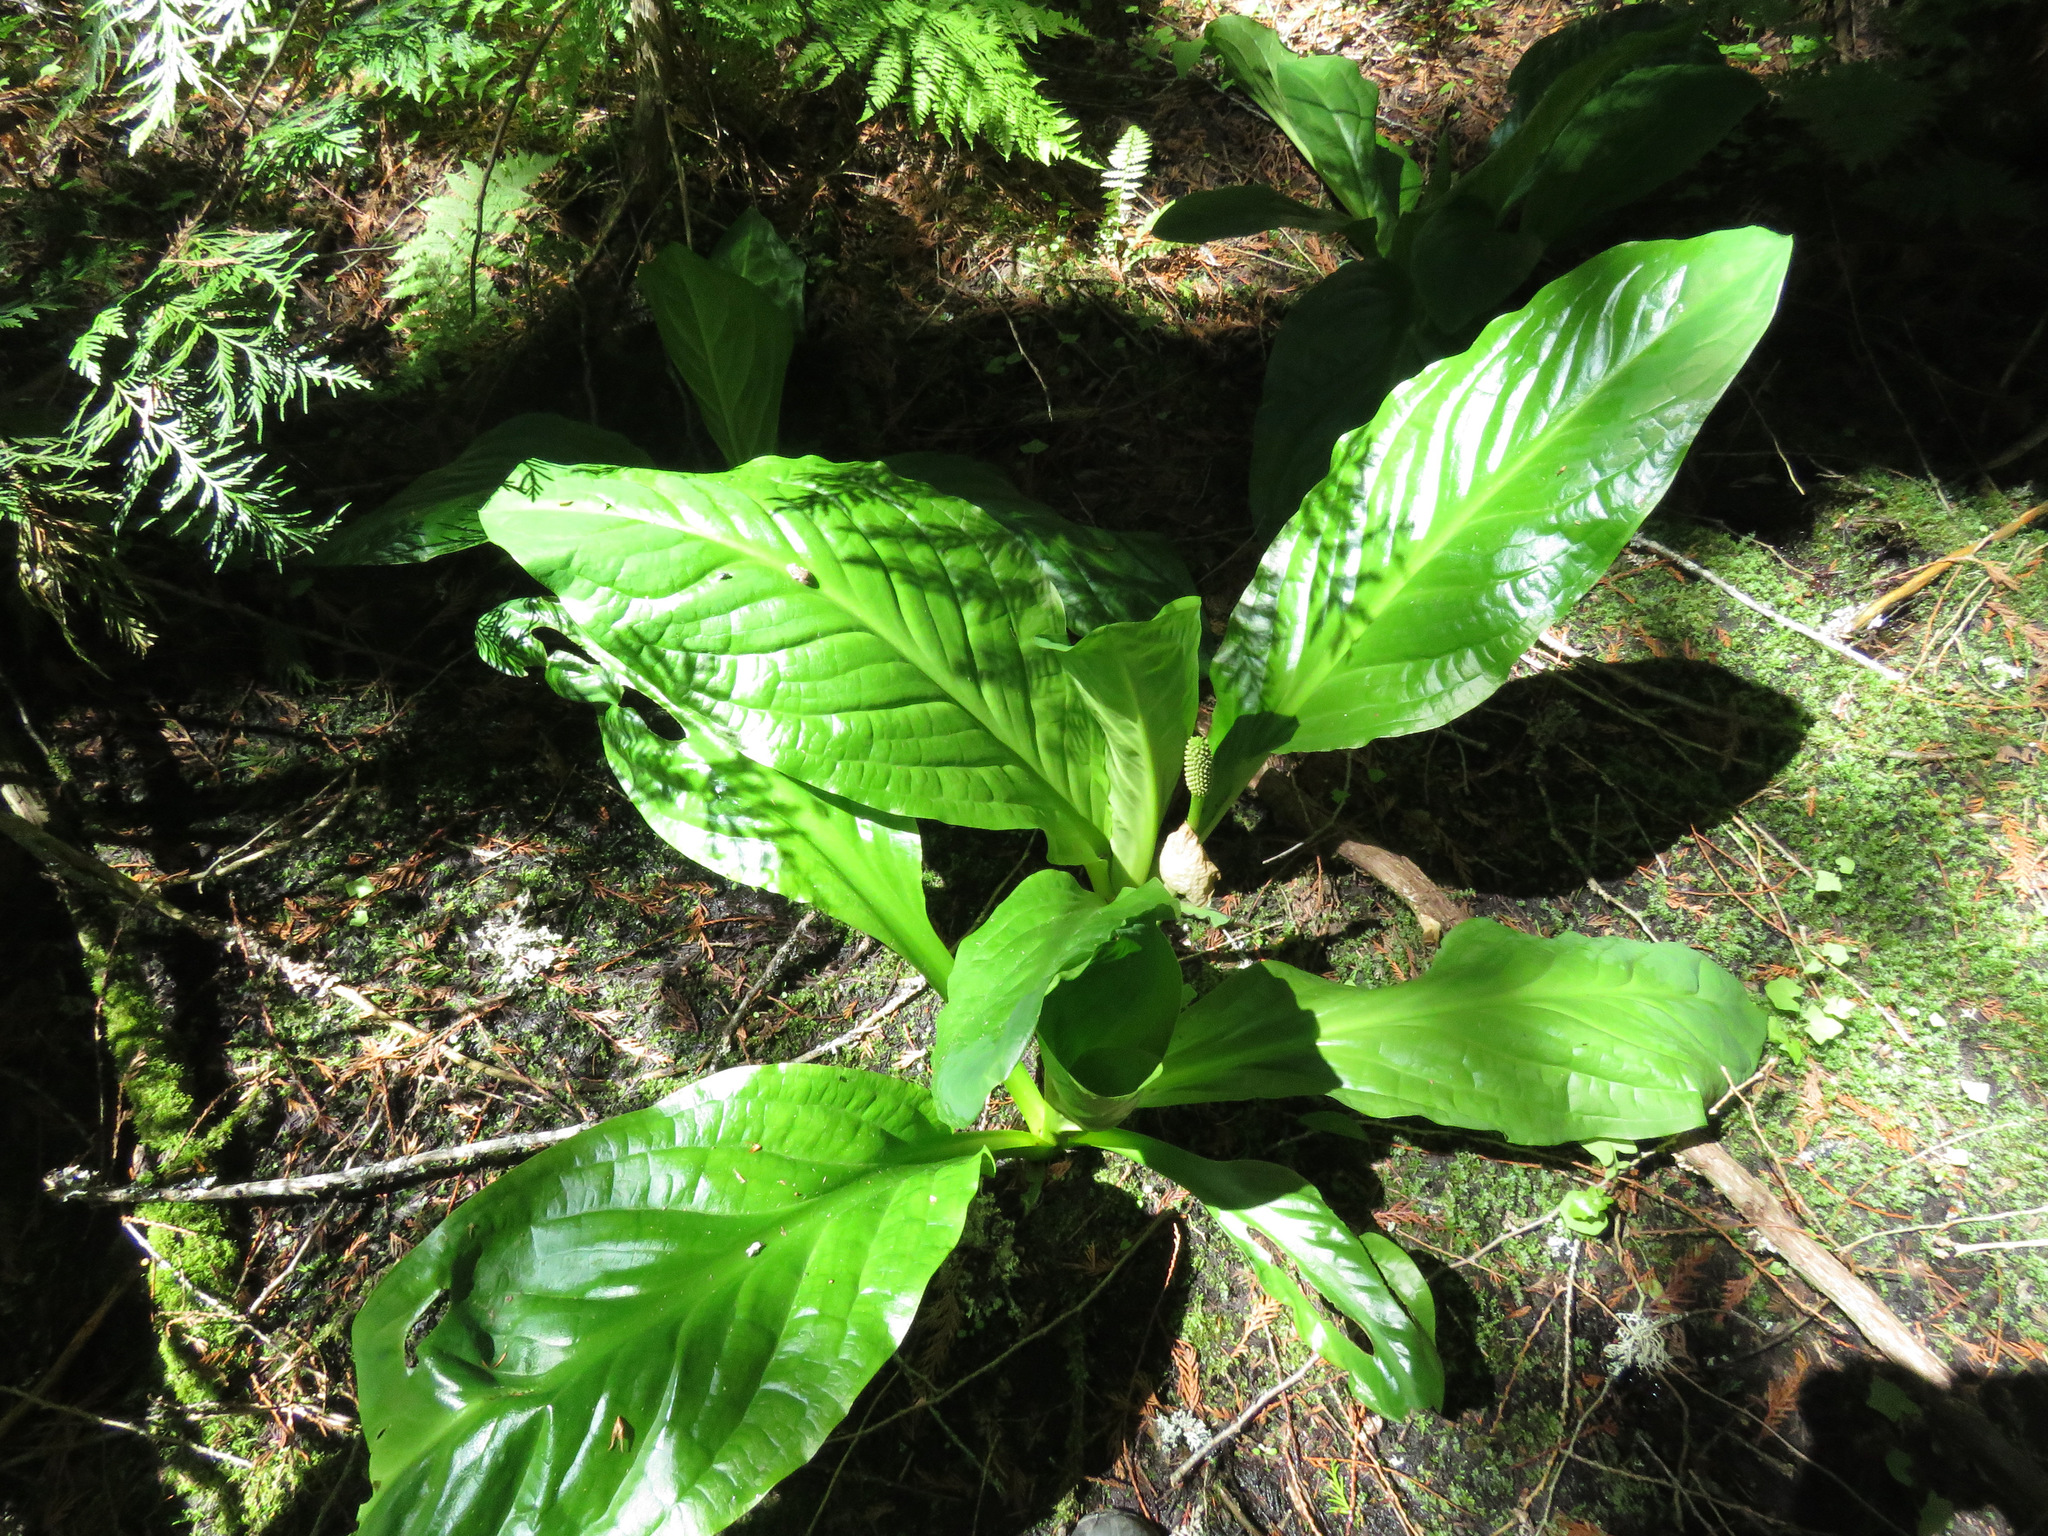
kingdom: Plantae
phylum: Tracheophyta
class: Liliopsida
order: Alismatales
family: Araceae
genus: Lysichiton
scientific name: Lysichiton americanus
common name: American skunk cabbage
